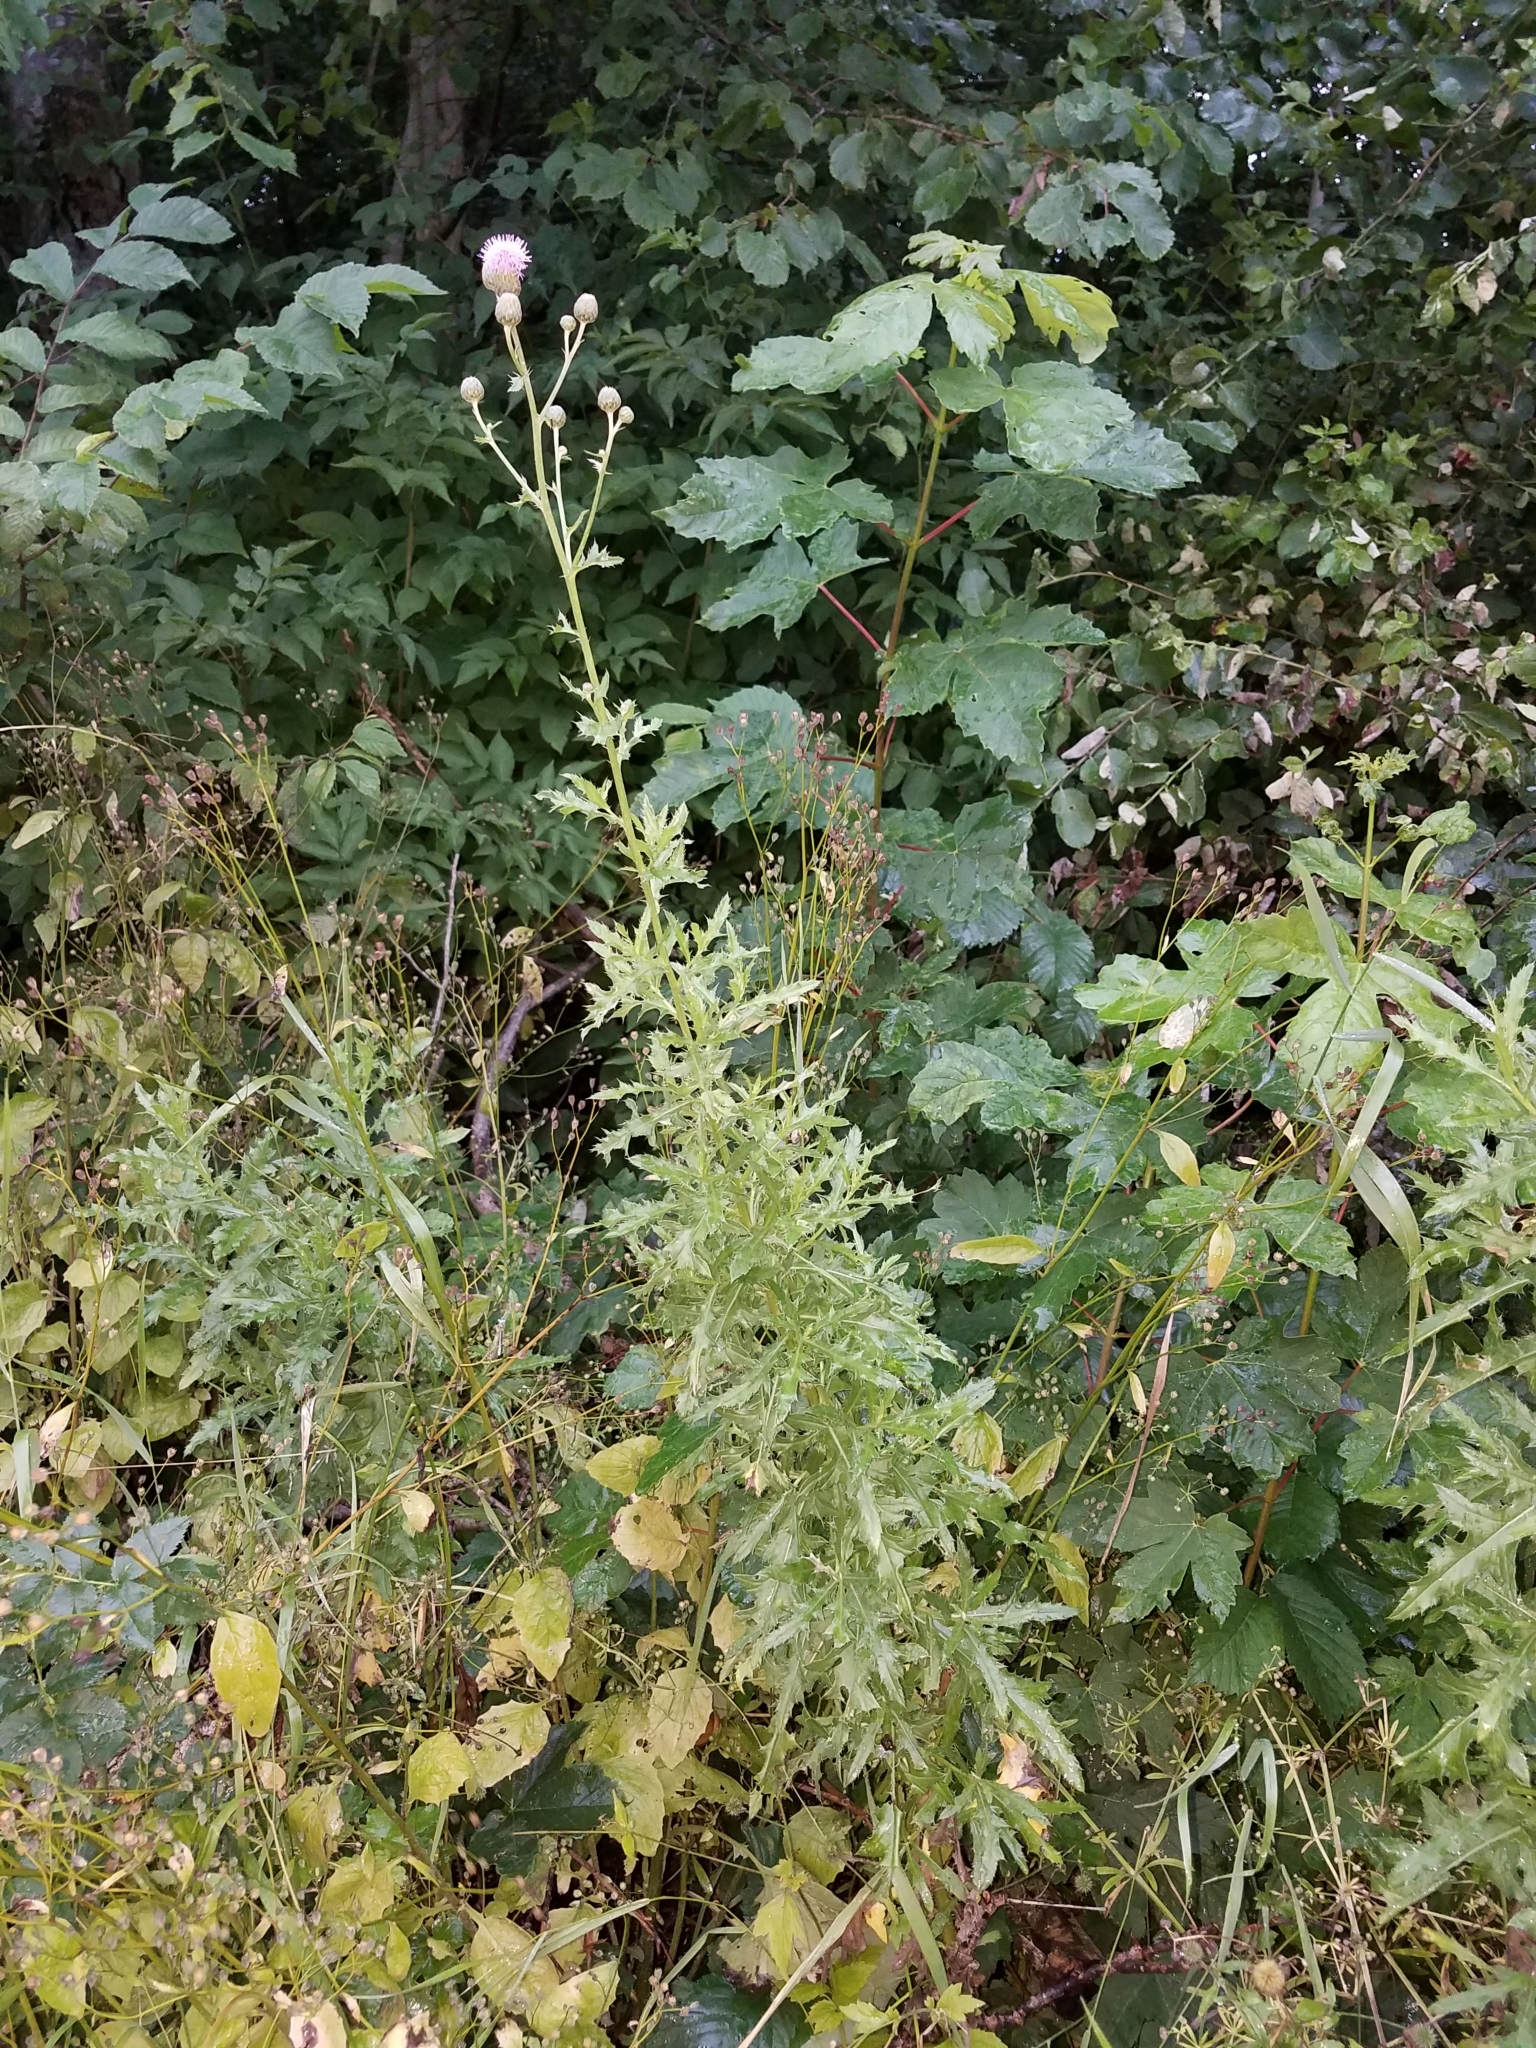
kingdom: Plantae
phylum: Tracheophyta
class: Magnoliopsida
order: Asterales
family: Asteraceae
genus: Cirsium
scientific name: Cirsium arvense
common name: Creeping thistle
